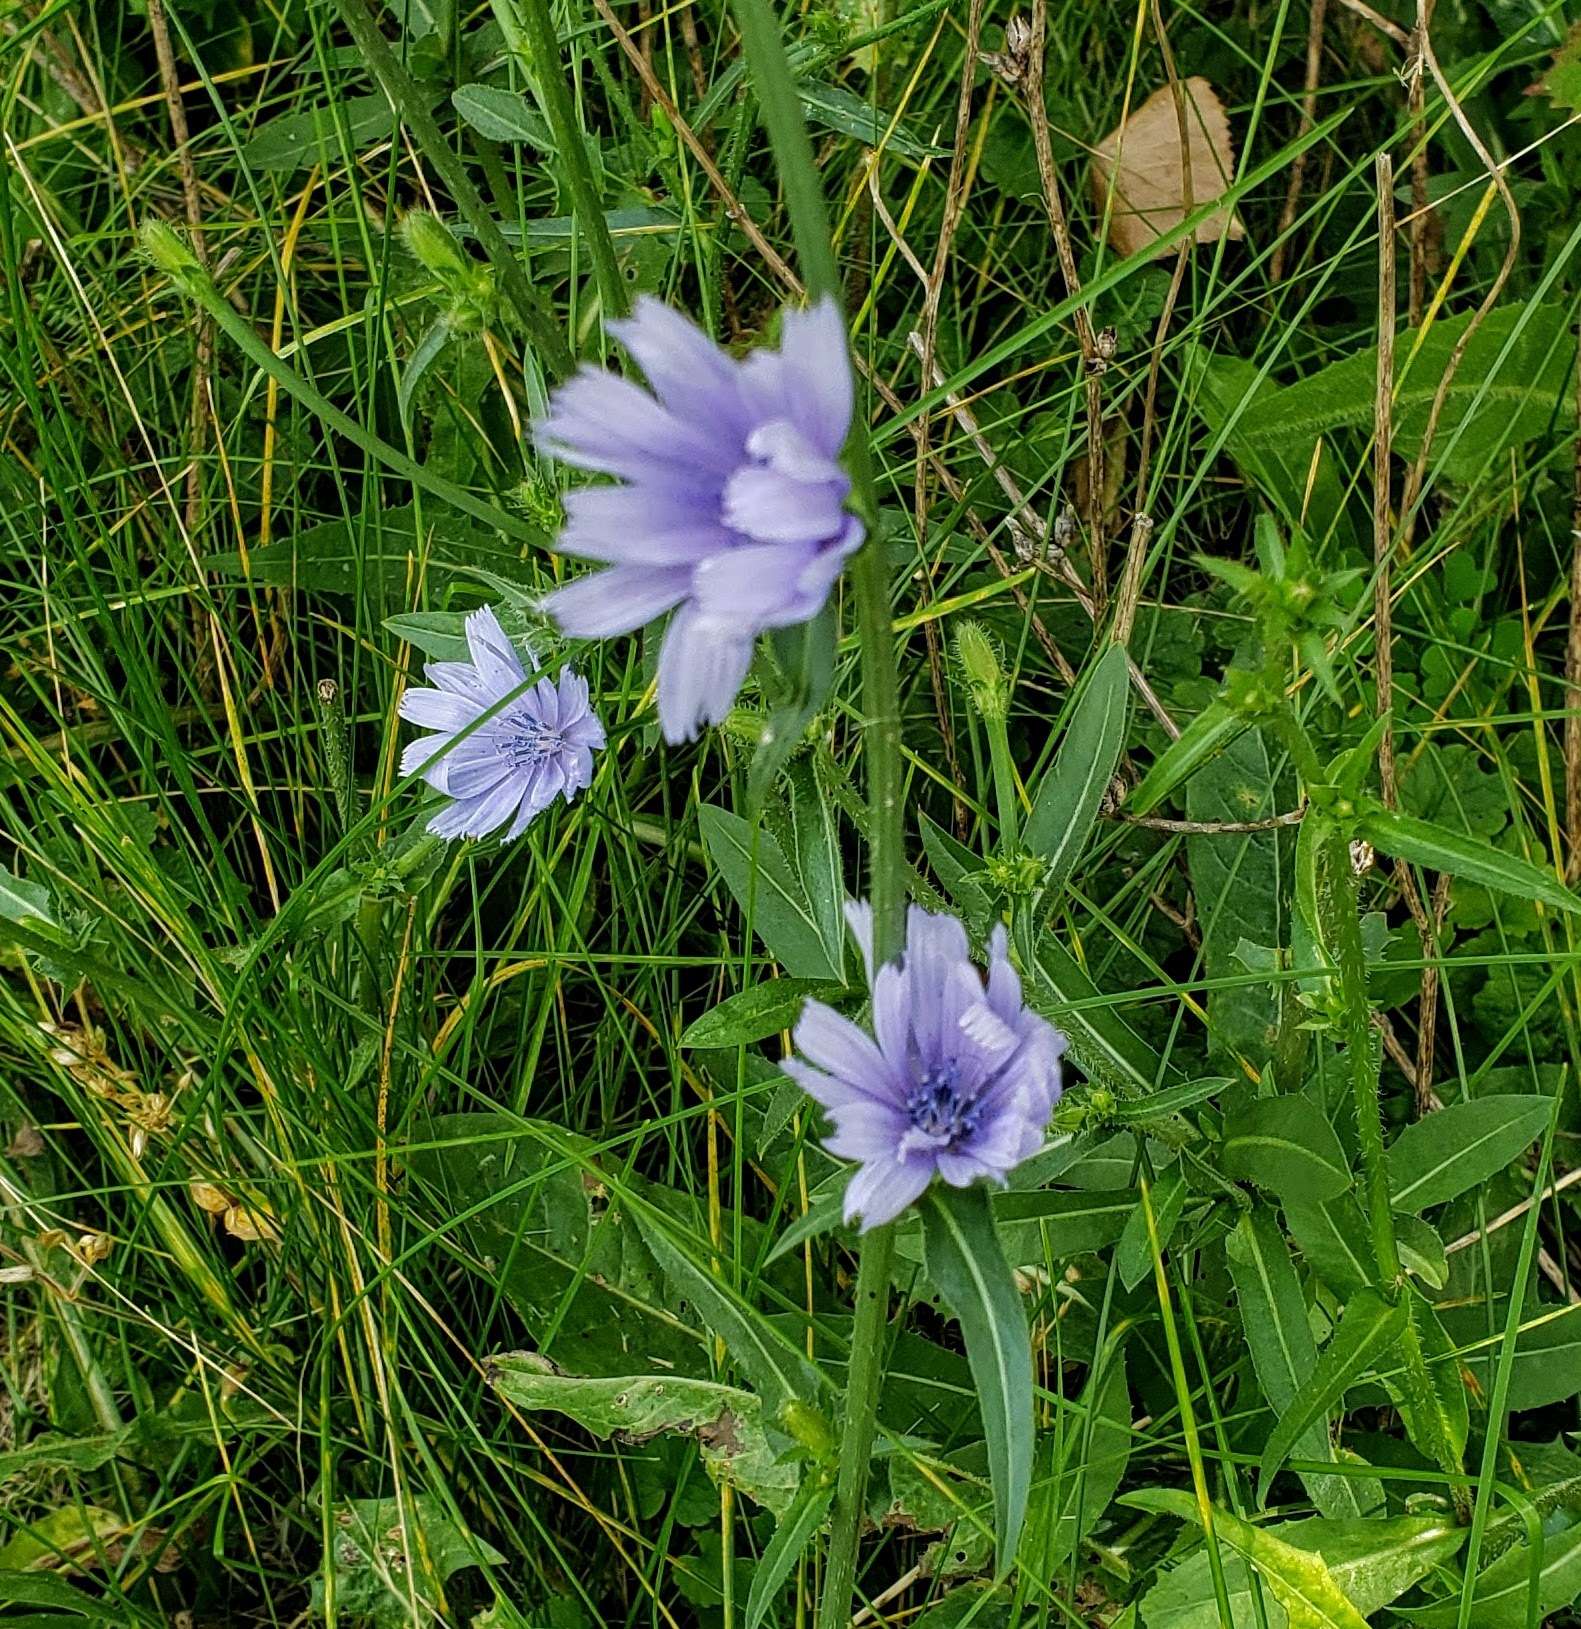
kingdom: Plantae
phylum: Tracheophyta
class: Magnoliopsida
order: Asterales
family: Asteraceae
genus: Cichorium
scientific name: Cichorium intybus
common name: Chicory
